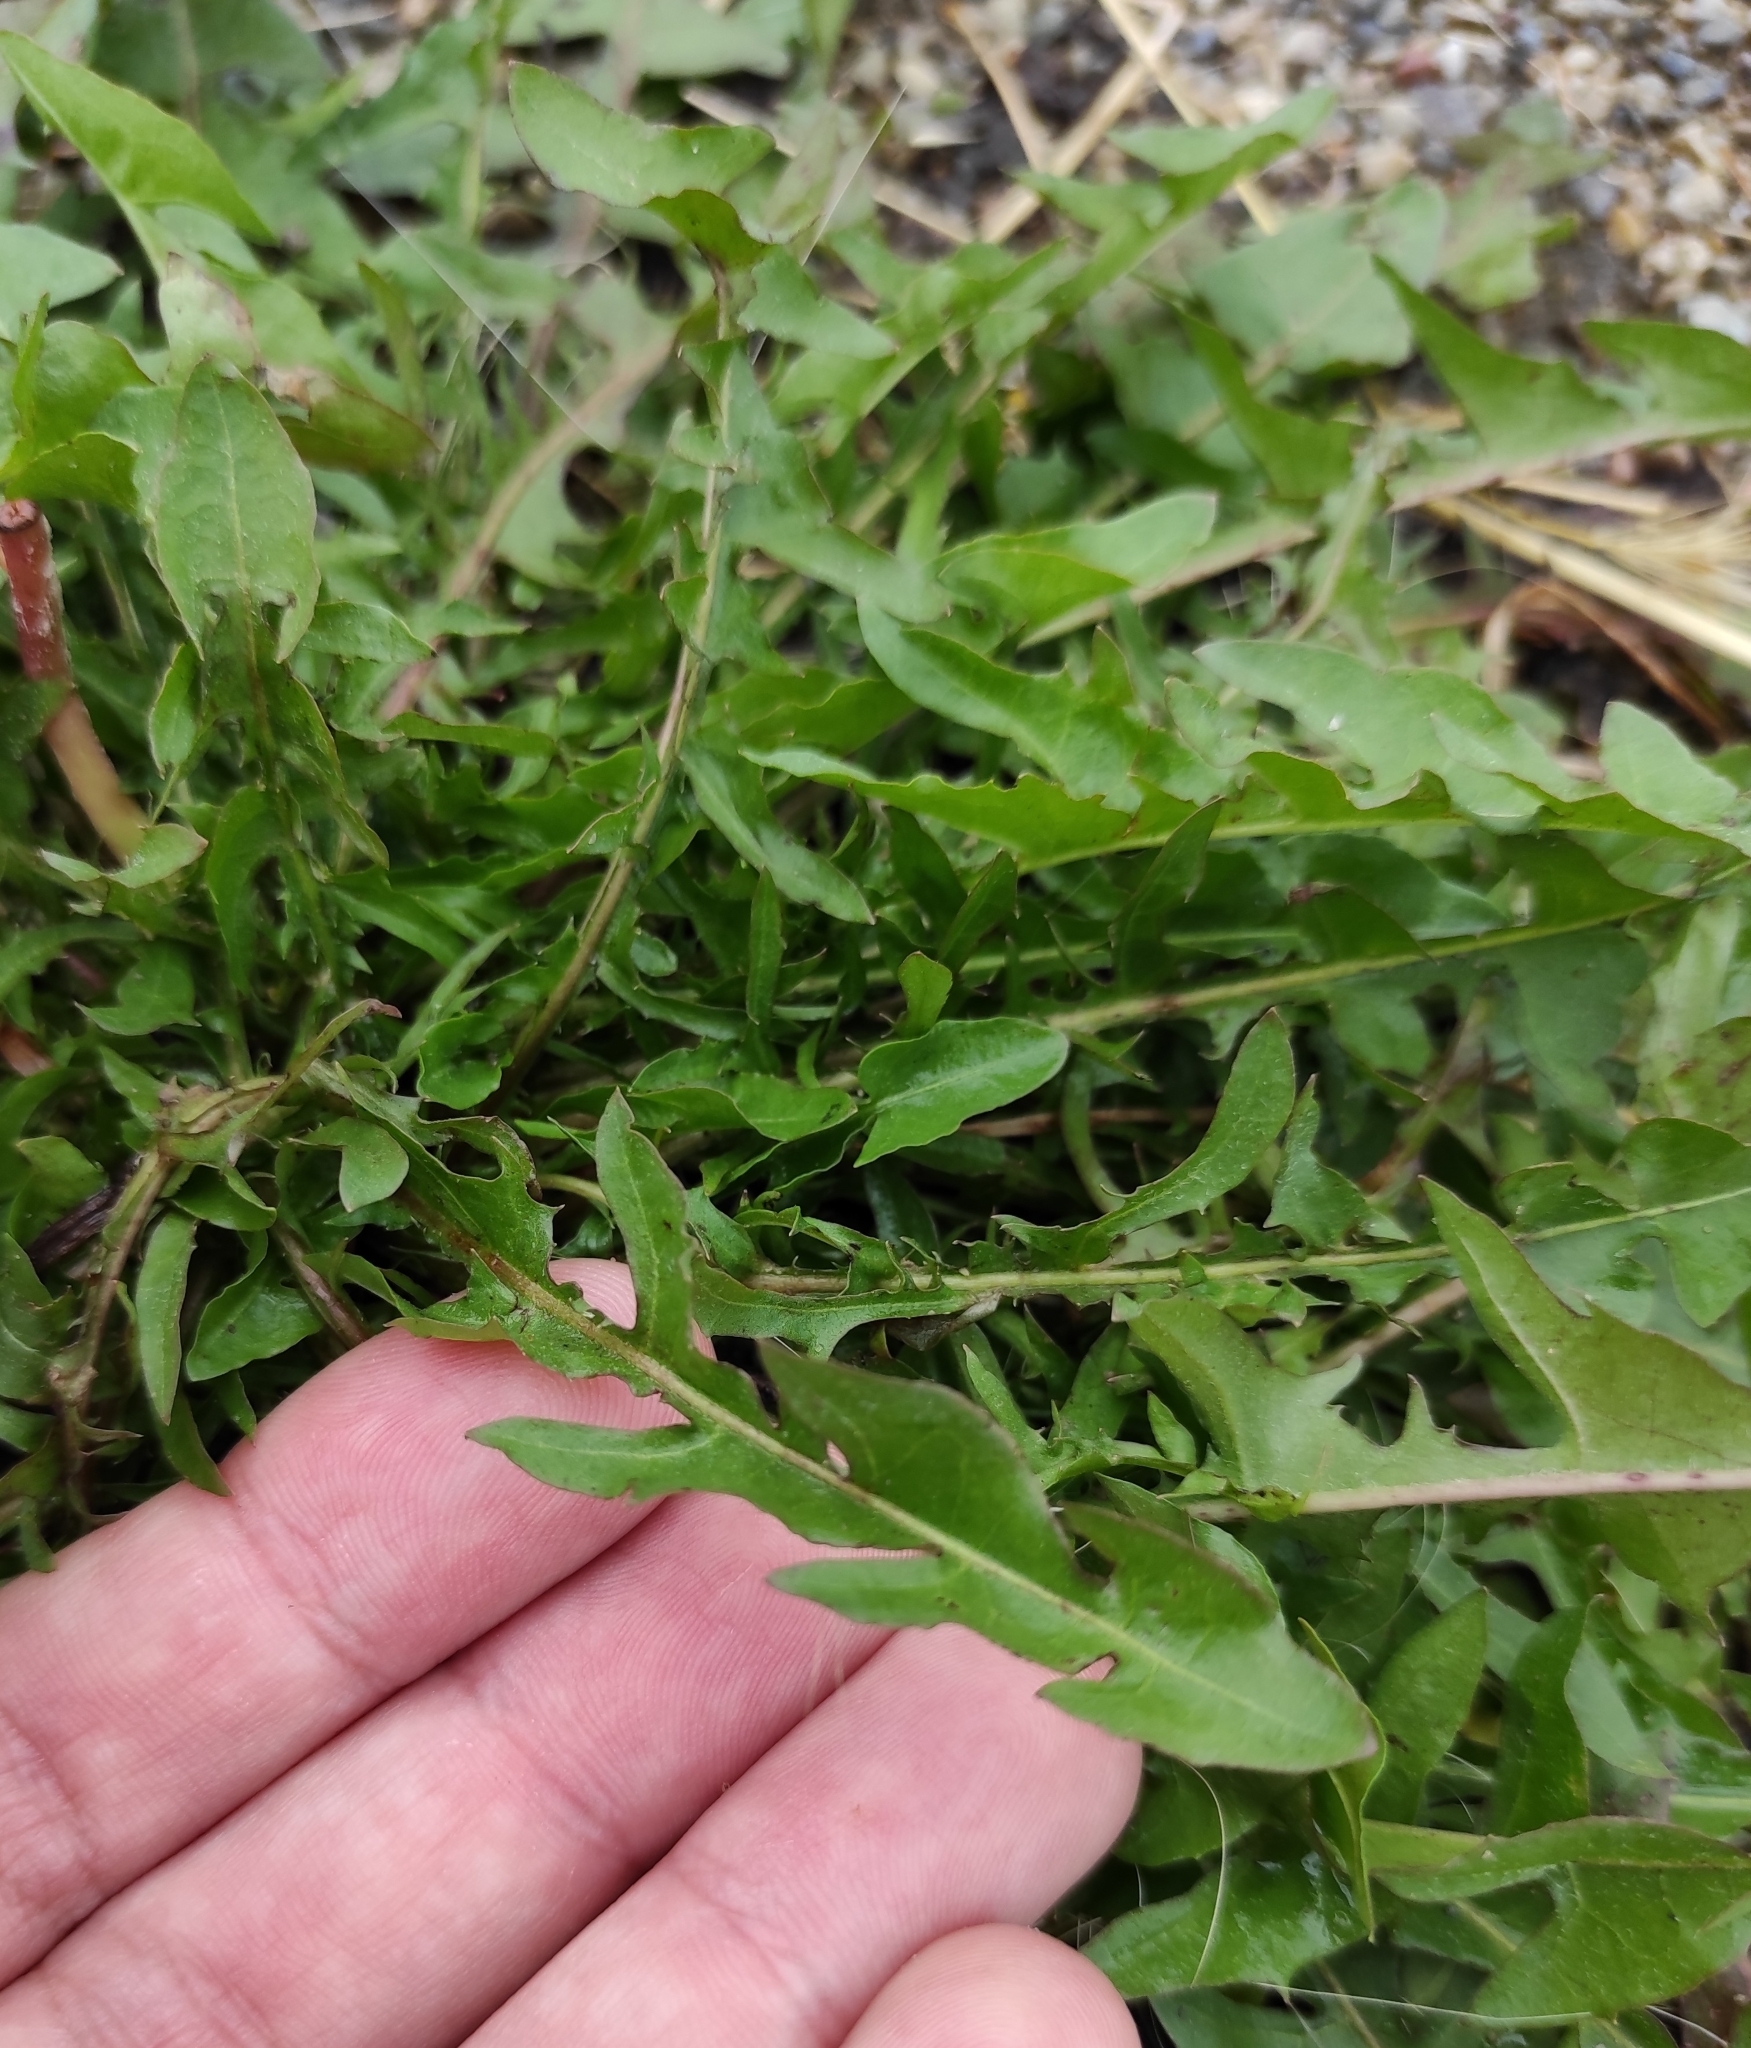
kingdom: Plantae
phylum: Tracheophyta
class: Magnoliopsida
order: Asterales
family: Asteraceae
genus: Taraxacum
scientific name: Taraxacum officinale
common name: Common dandelion
